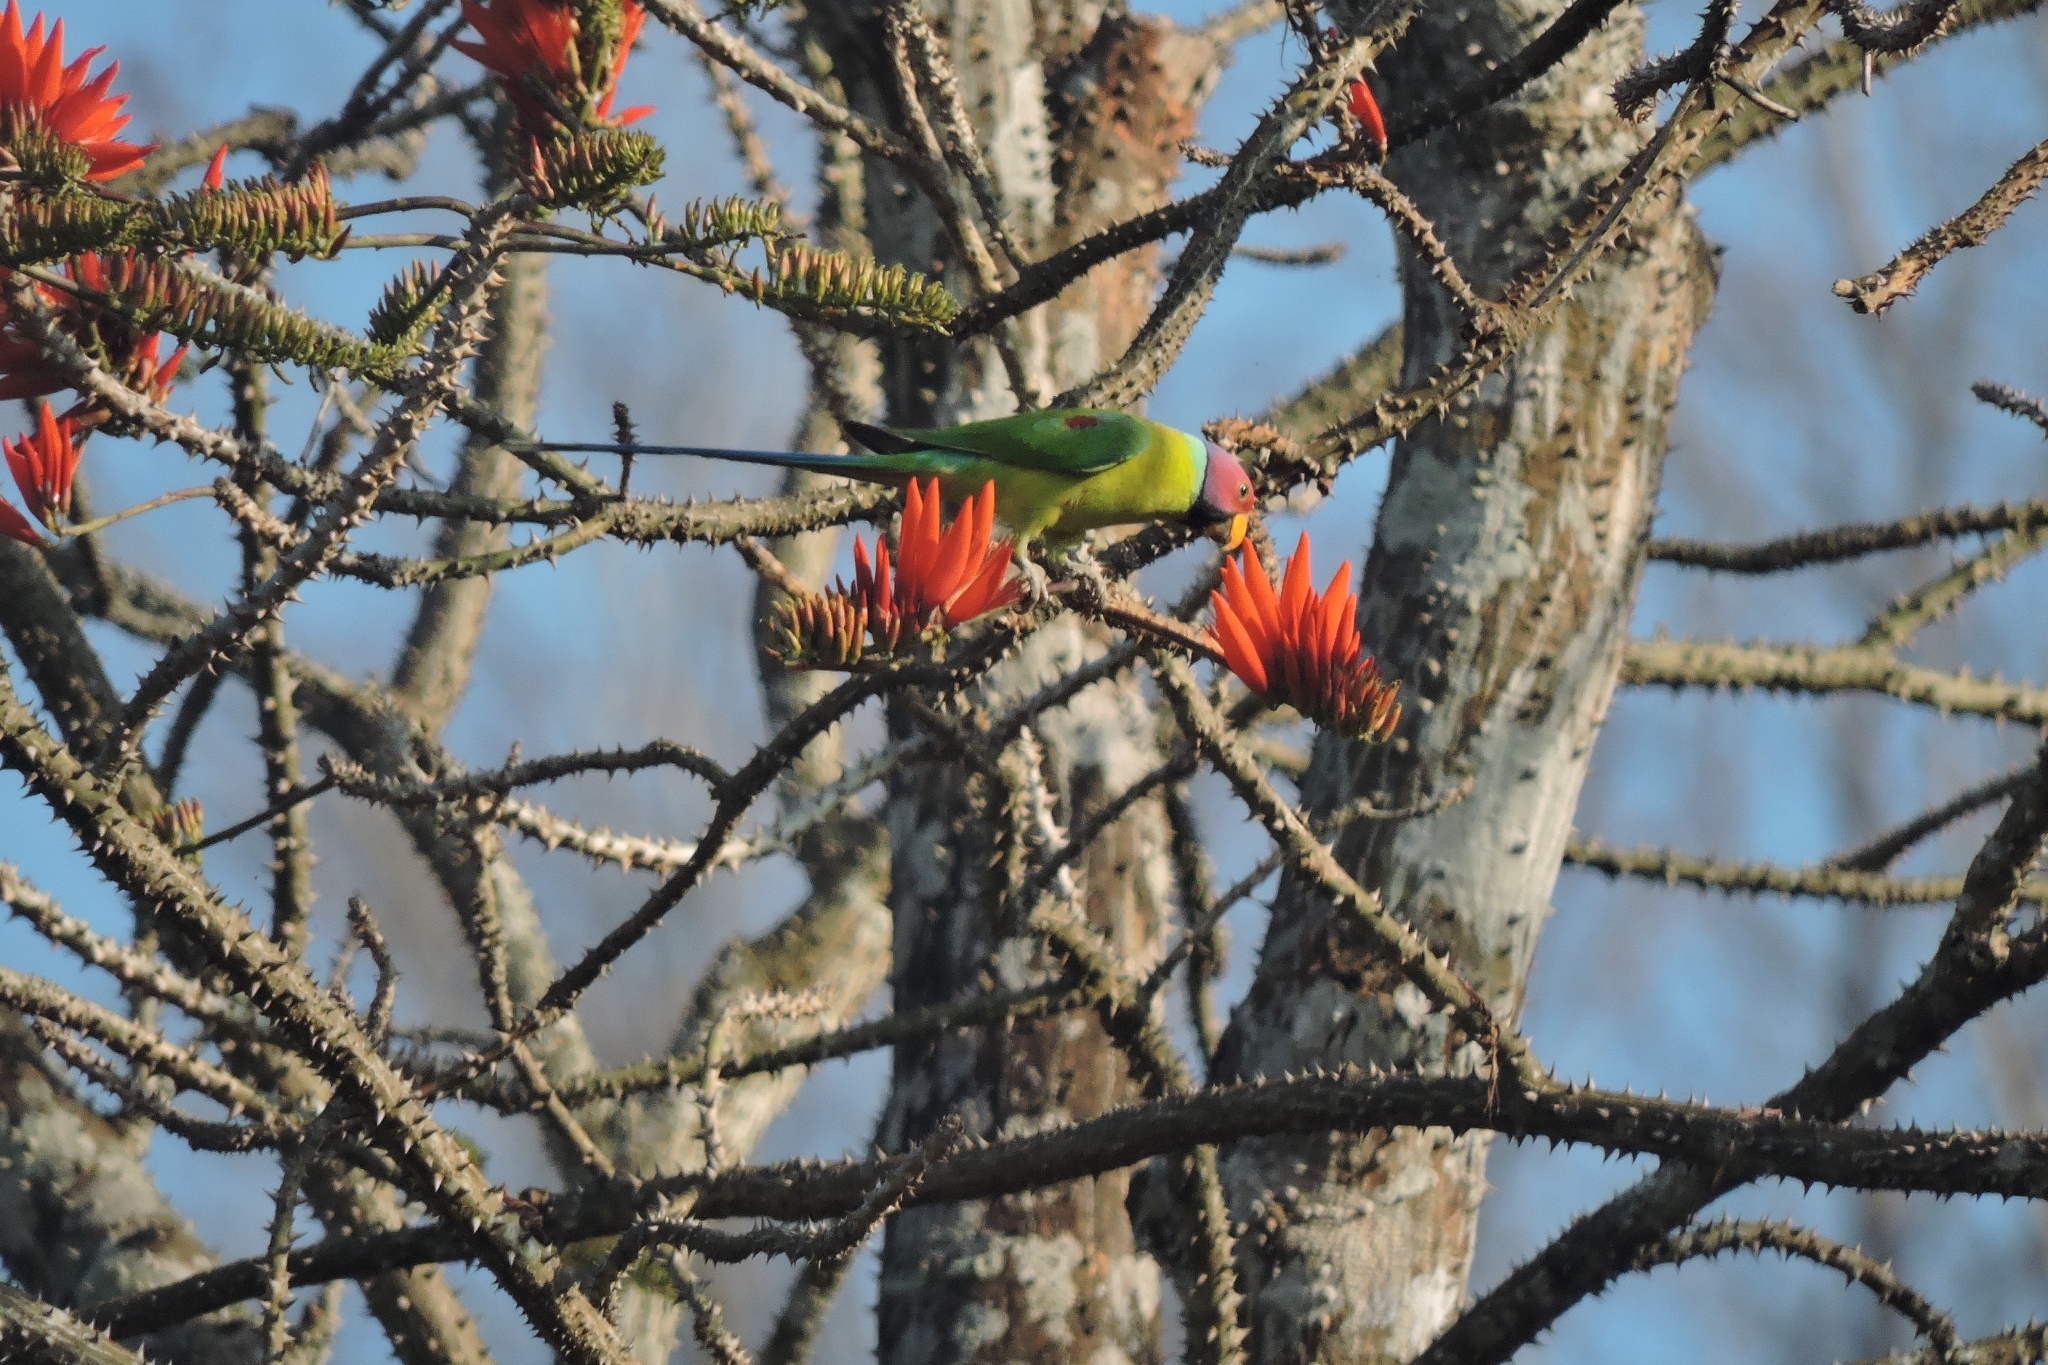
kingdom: Animalia
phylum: Chordata
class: Aves
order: Psittaciformes
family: Psittacidae
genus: Psittacula
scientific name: Psittacula cyanocephala
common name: Plum-headed parakeet
